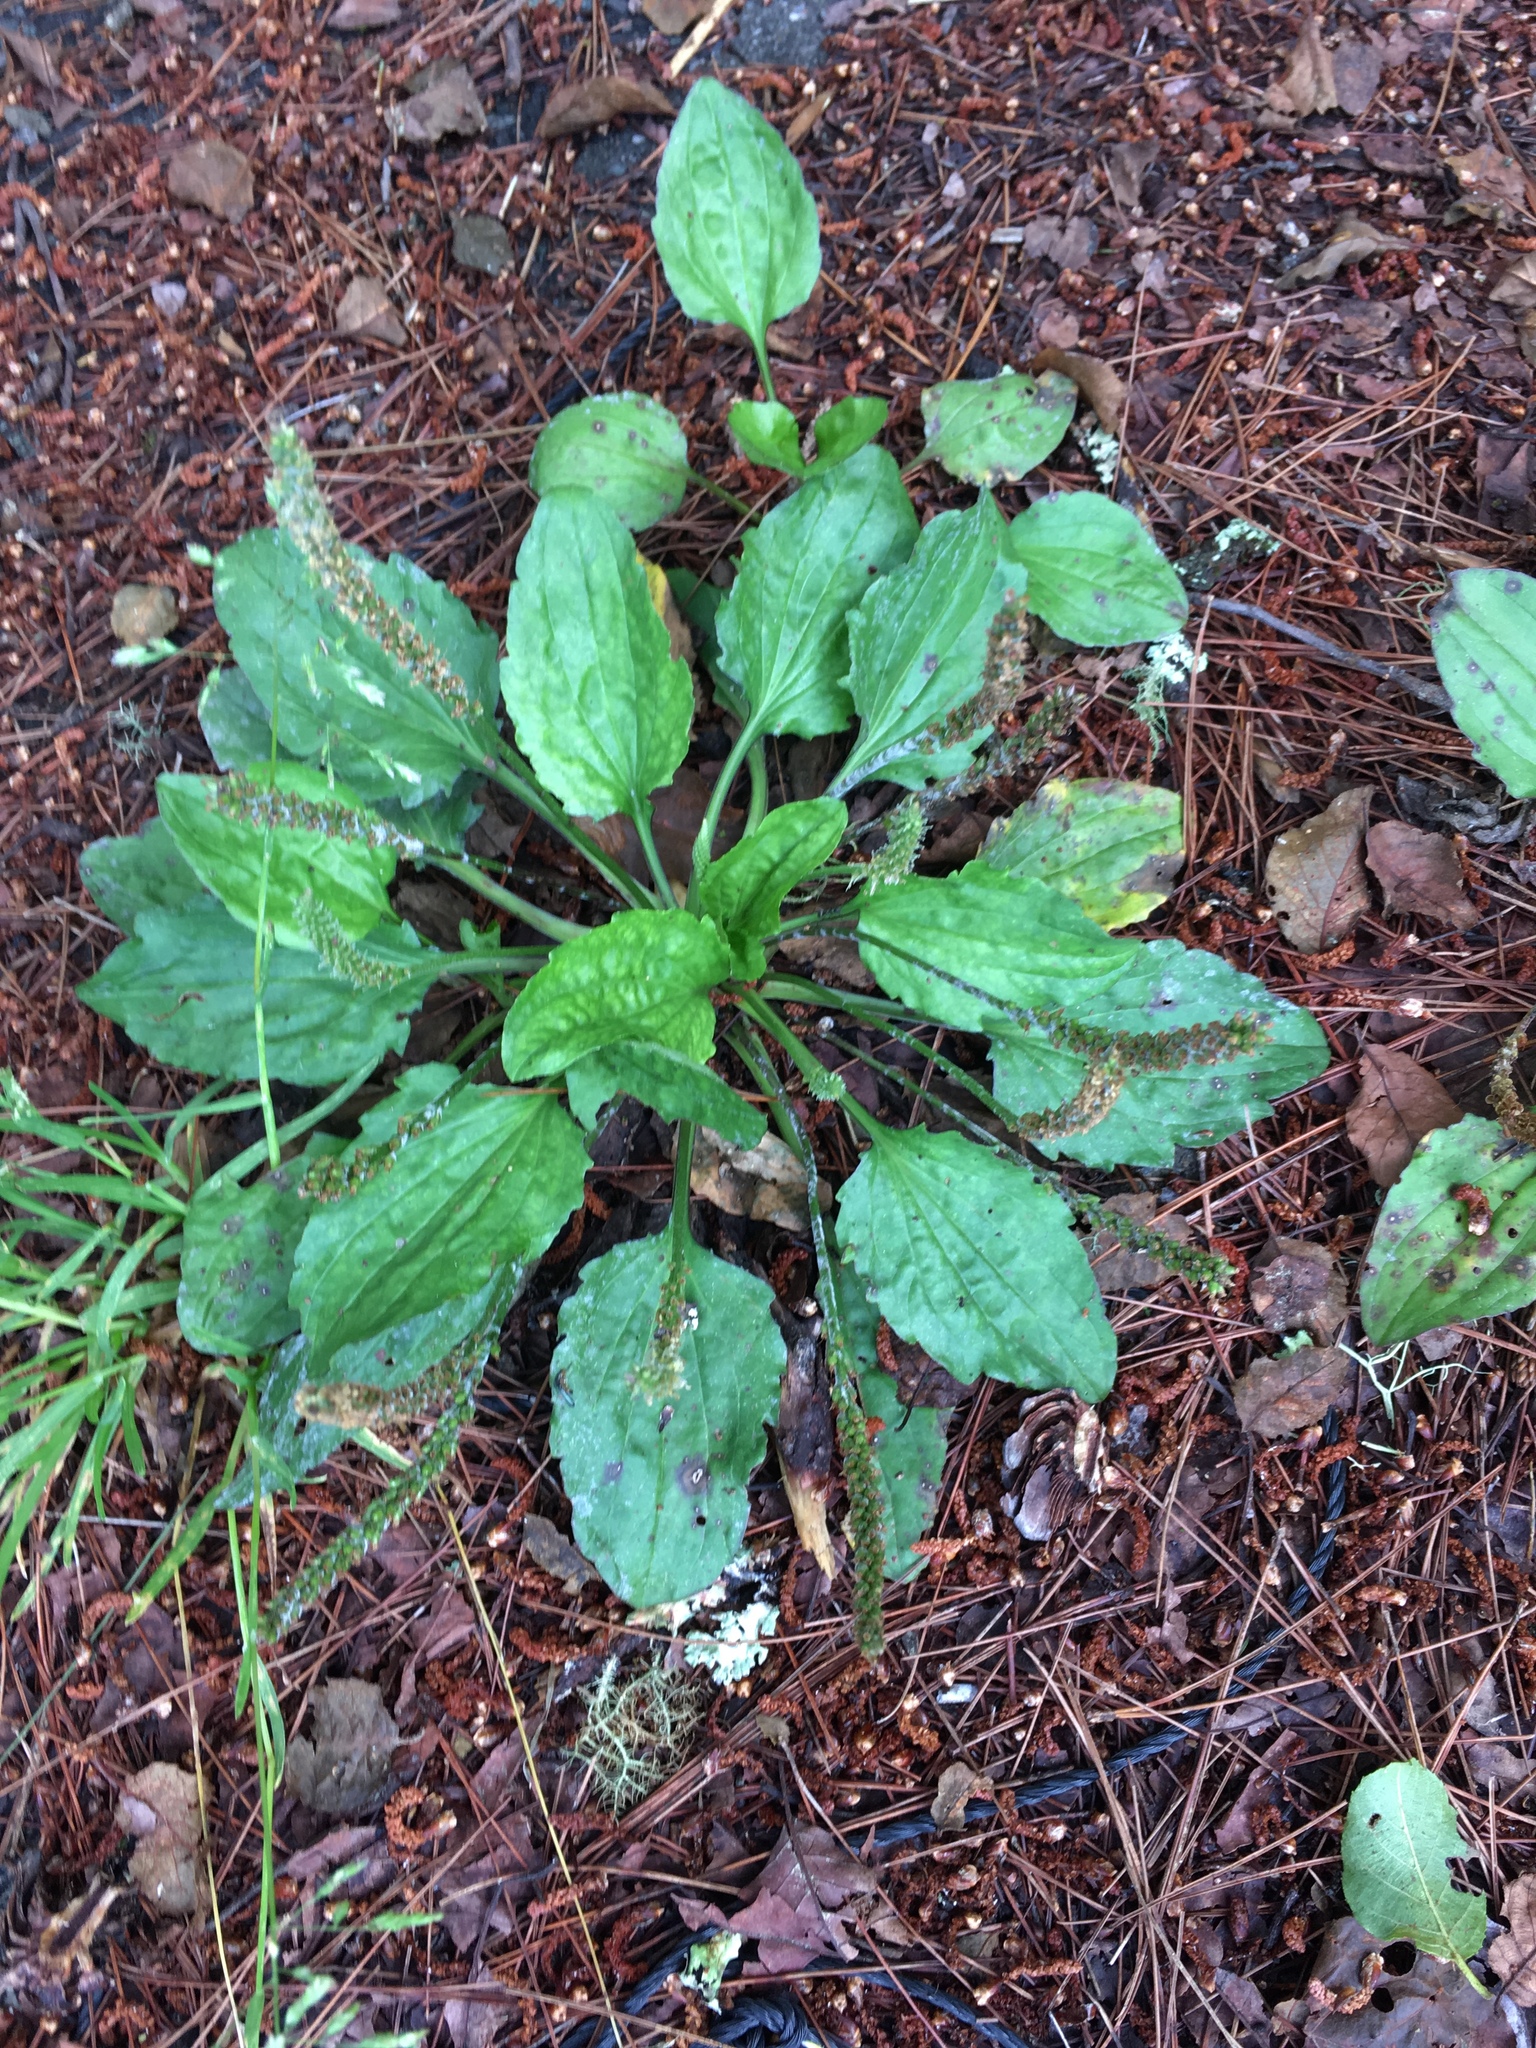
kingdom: Plantae
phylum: Tracheophyta
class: Magnoliopsida
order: Lamiales
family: Plantaginaceae
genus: Plantago
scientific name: Plantago major
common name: Common plantain
